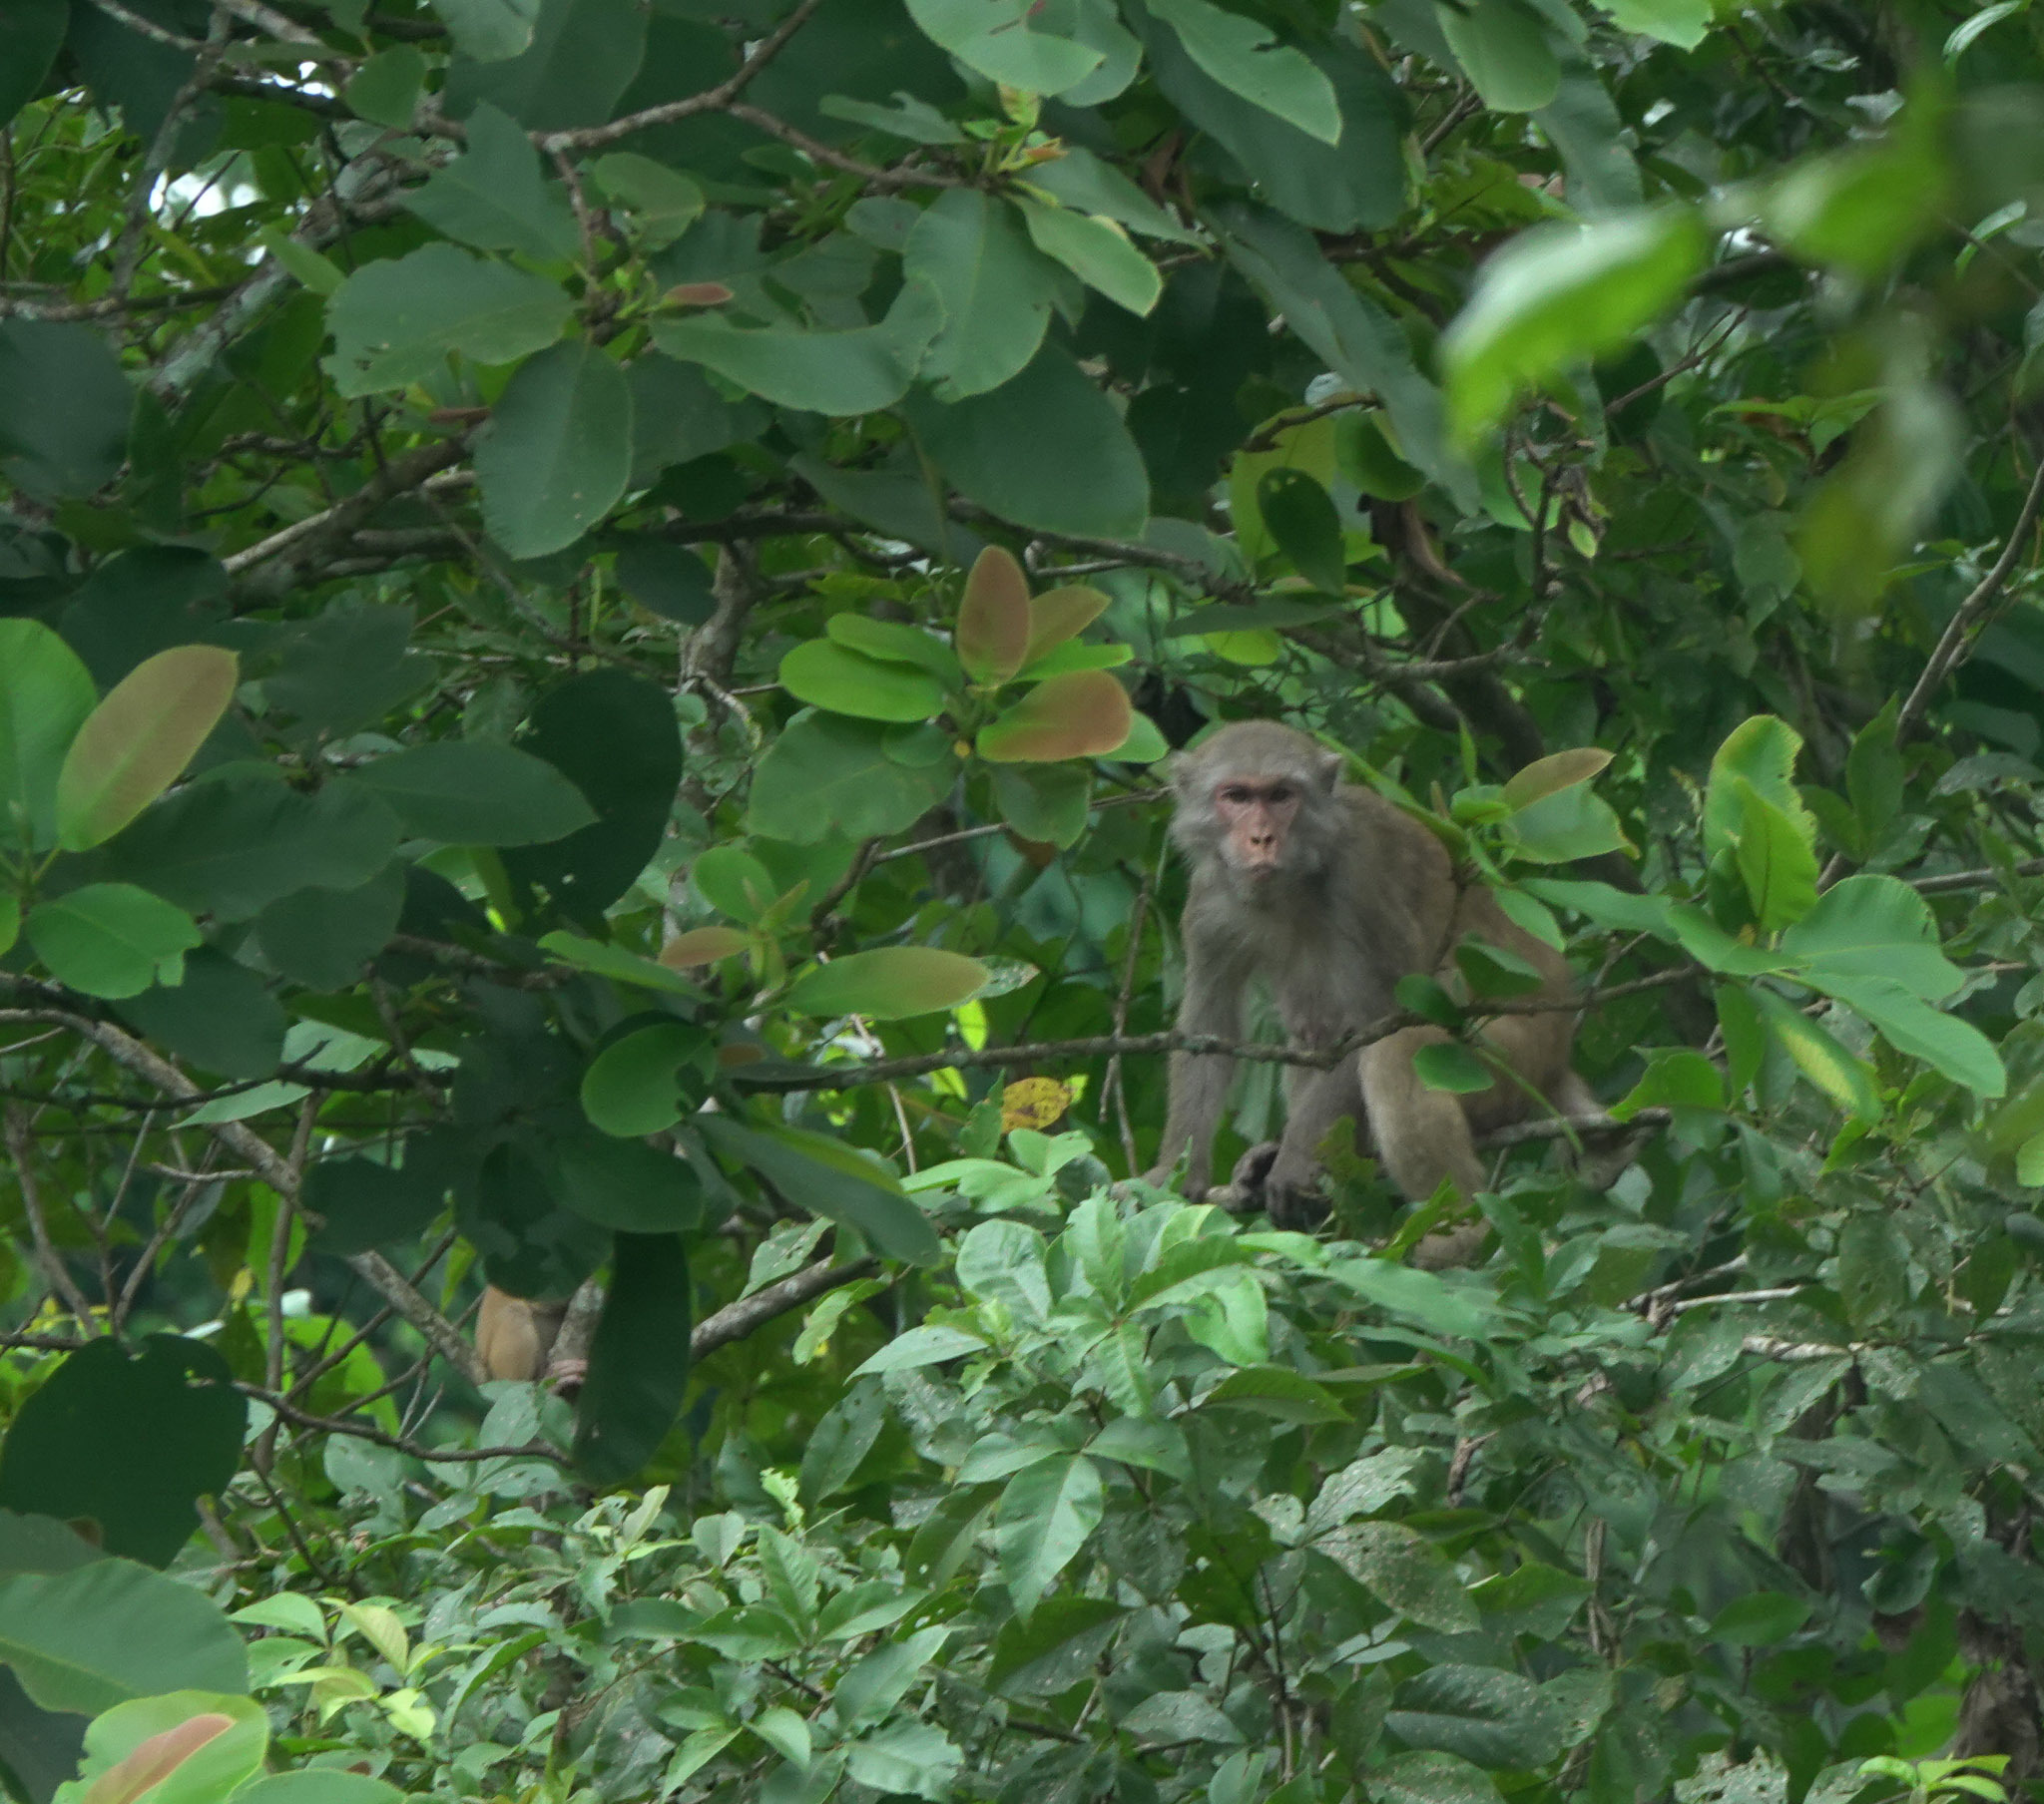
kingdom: Animalia
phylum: Chordata
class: Mammalia
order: Primates
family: Cercopithecidae
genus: Macaca
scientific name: Macaca mulatta
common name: Rhesus monkey
